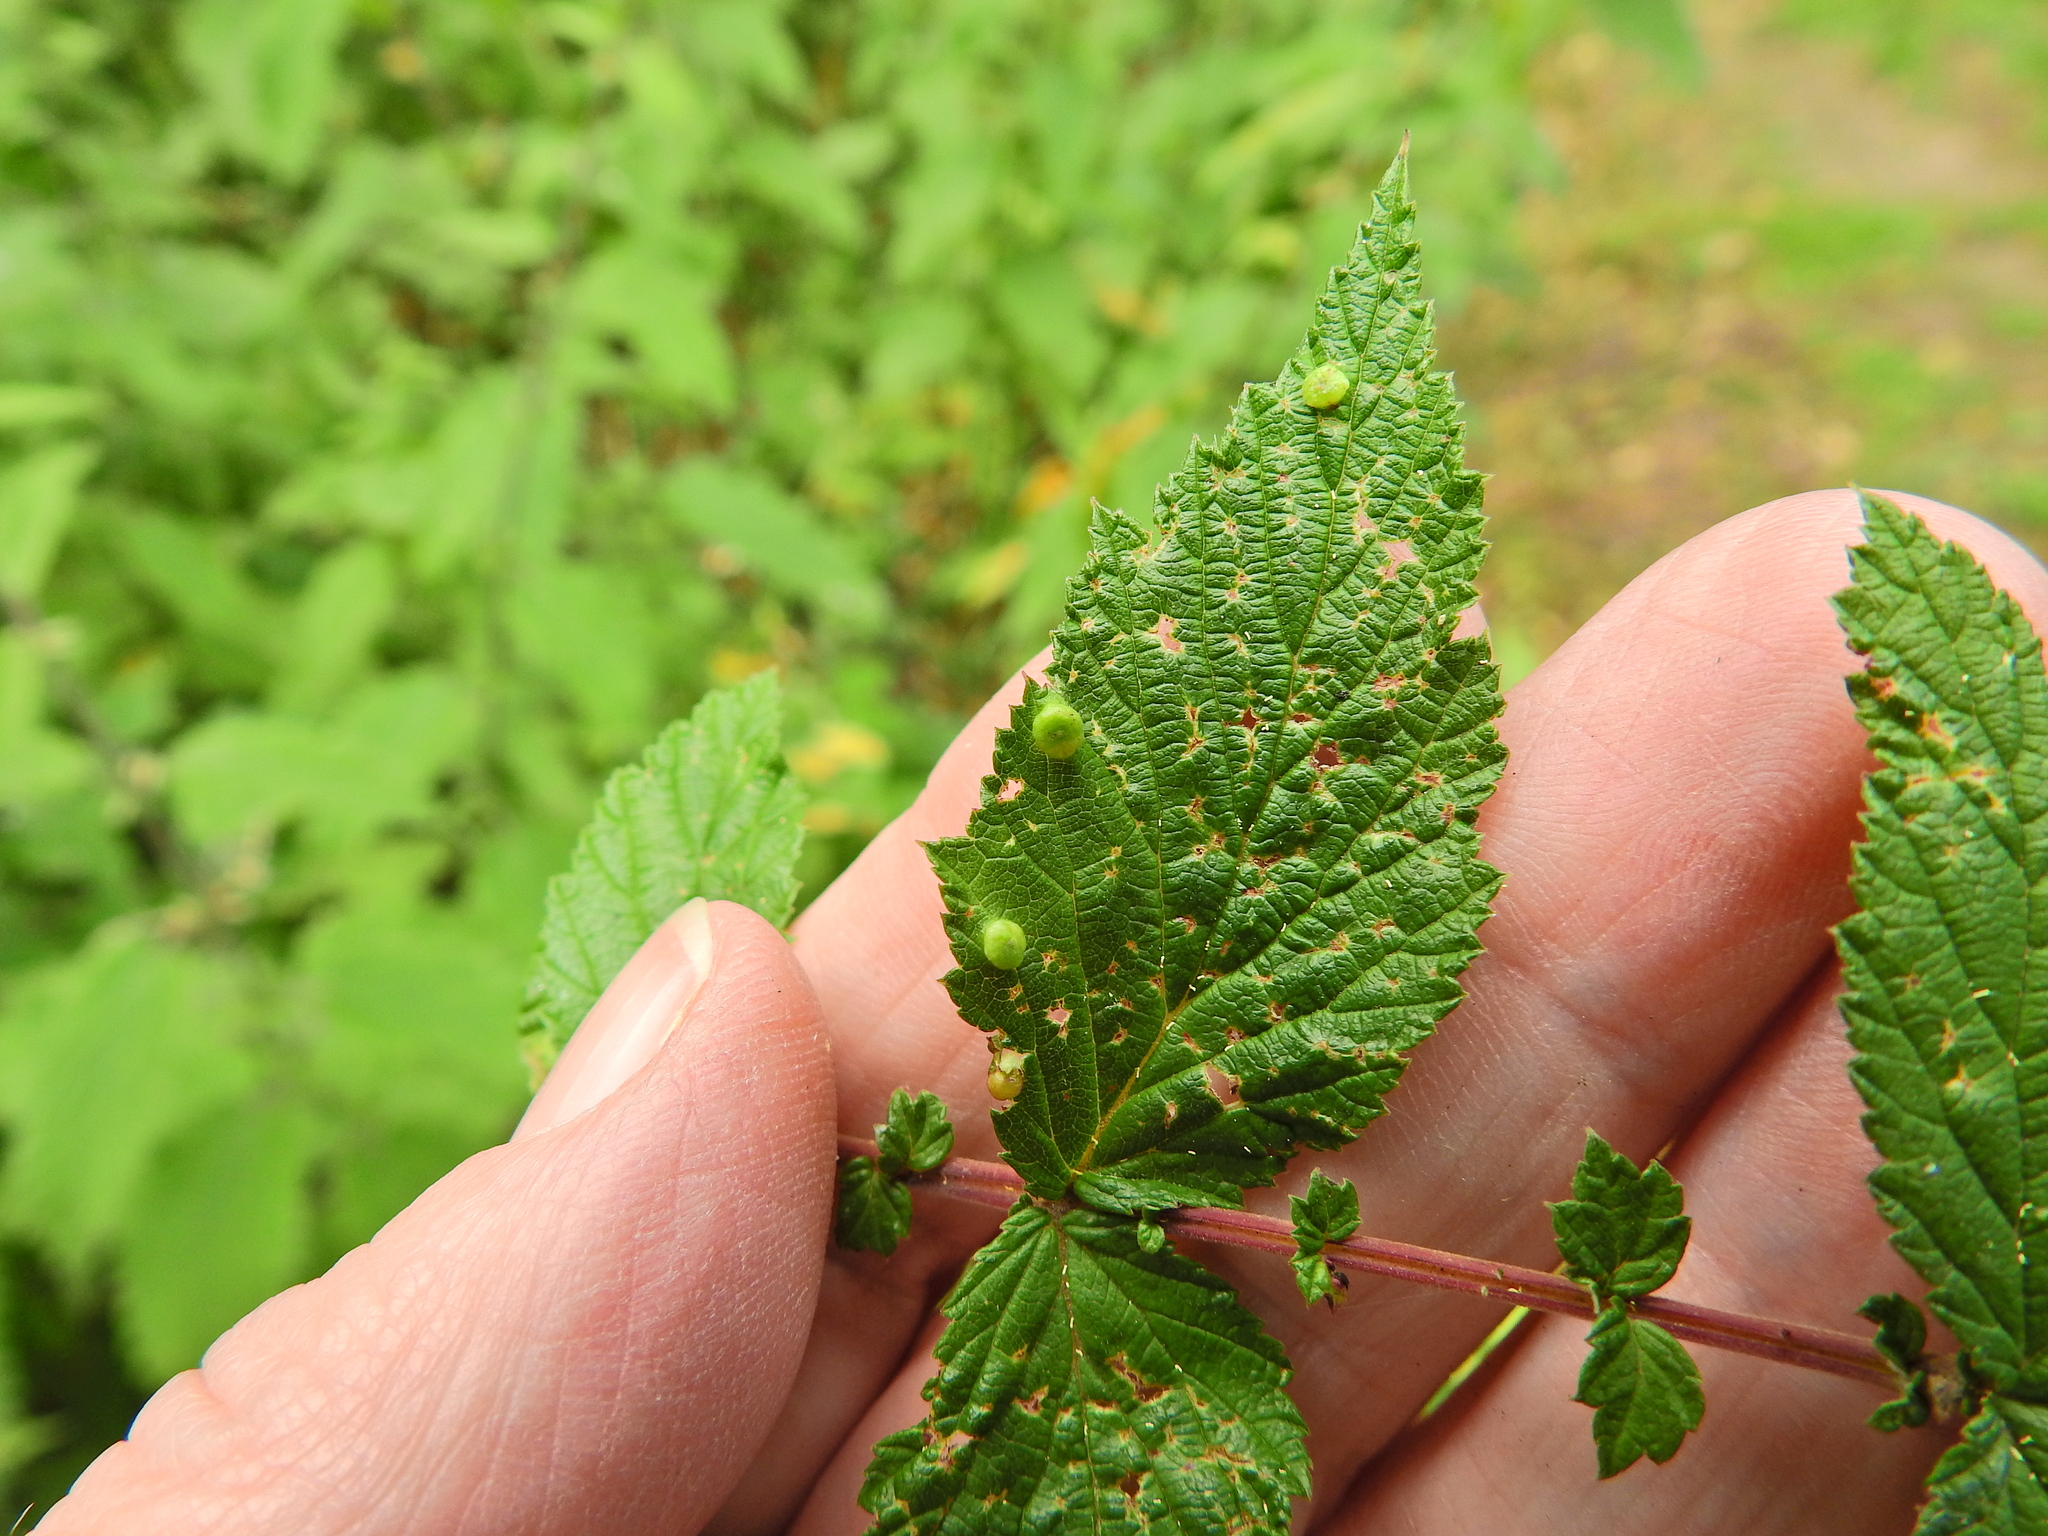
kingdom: Animalia
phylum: Arthropoda
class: Insecta
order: Diptera
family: Cecidomyiidae
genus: Dasineura
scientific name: Dasineura ulmaria
